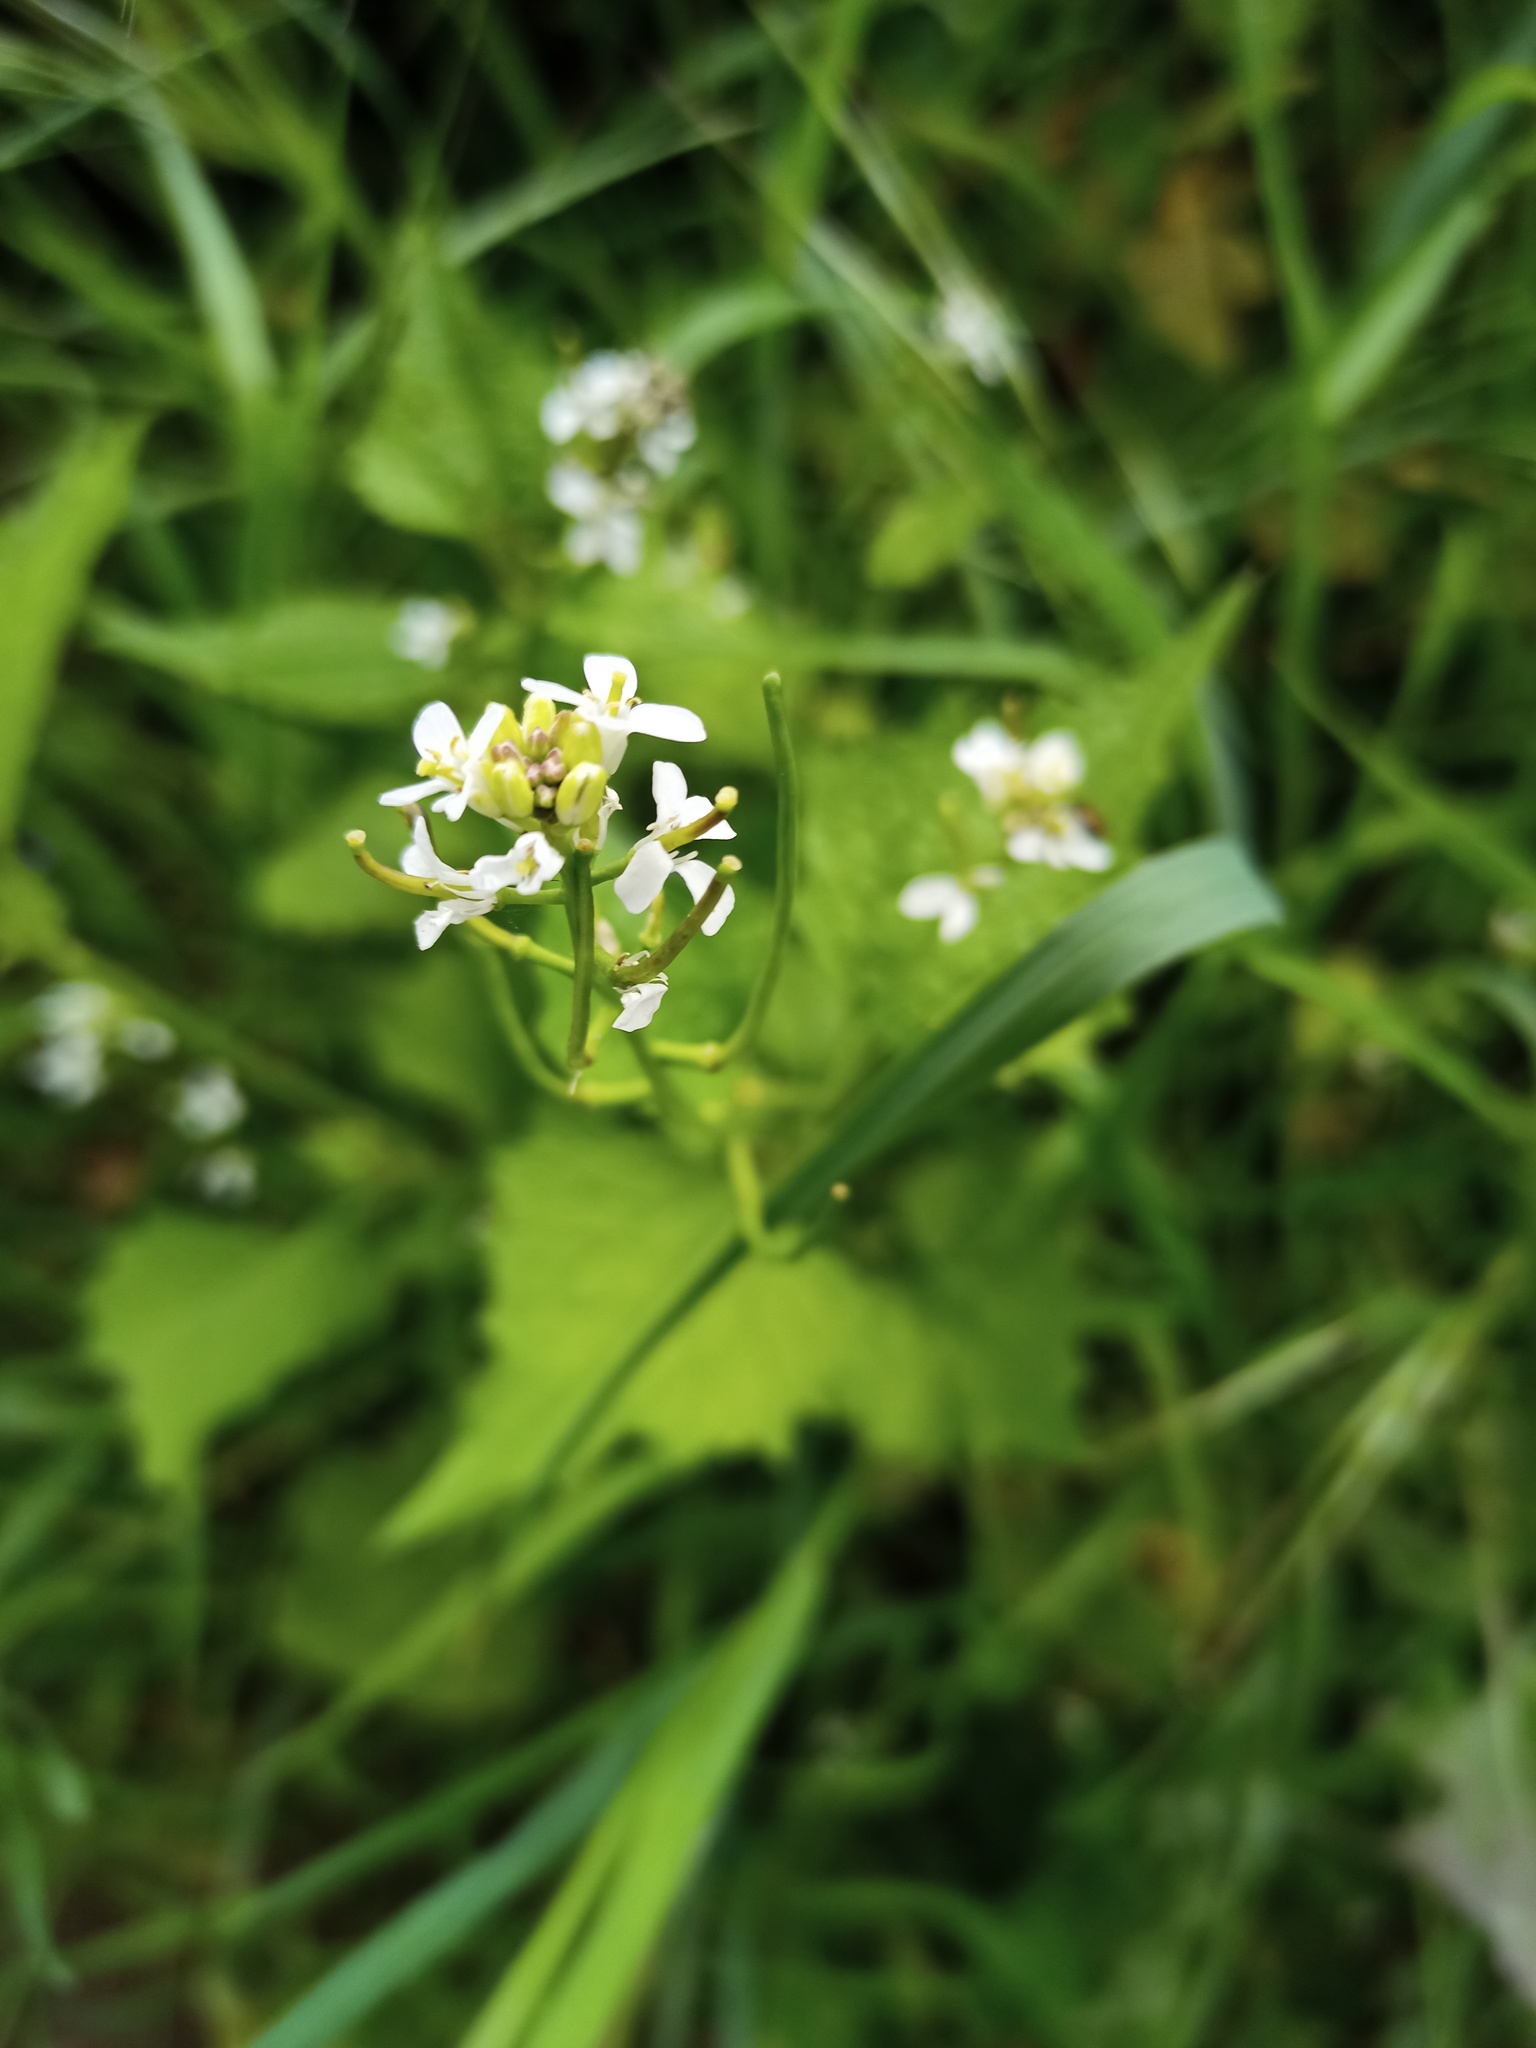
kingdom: Plantae
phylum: Tracheophyta
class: Magnoliopsida
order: Brassicales
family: Brassicaceae
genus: Alliaria
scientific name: Alliaria petiolata
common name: Garlic mustard
